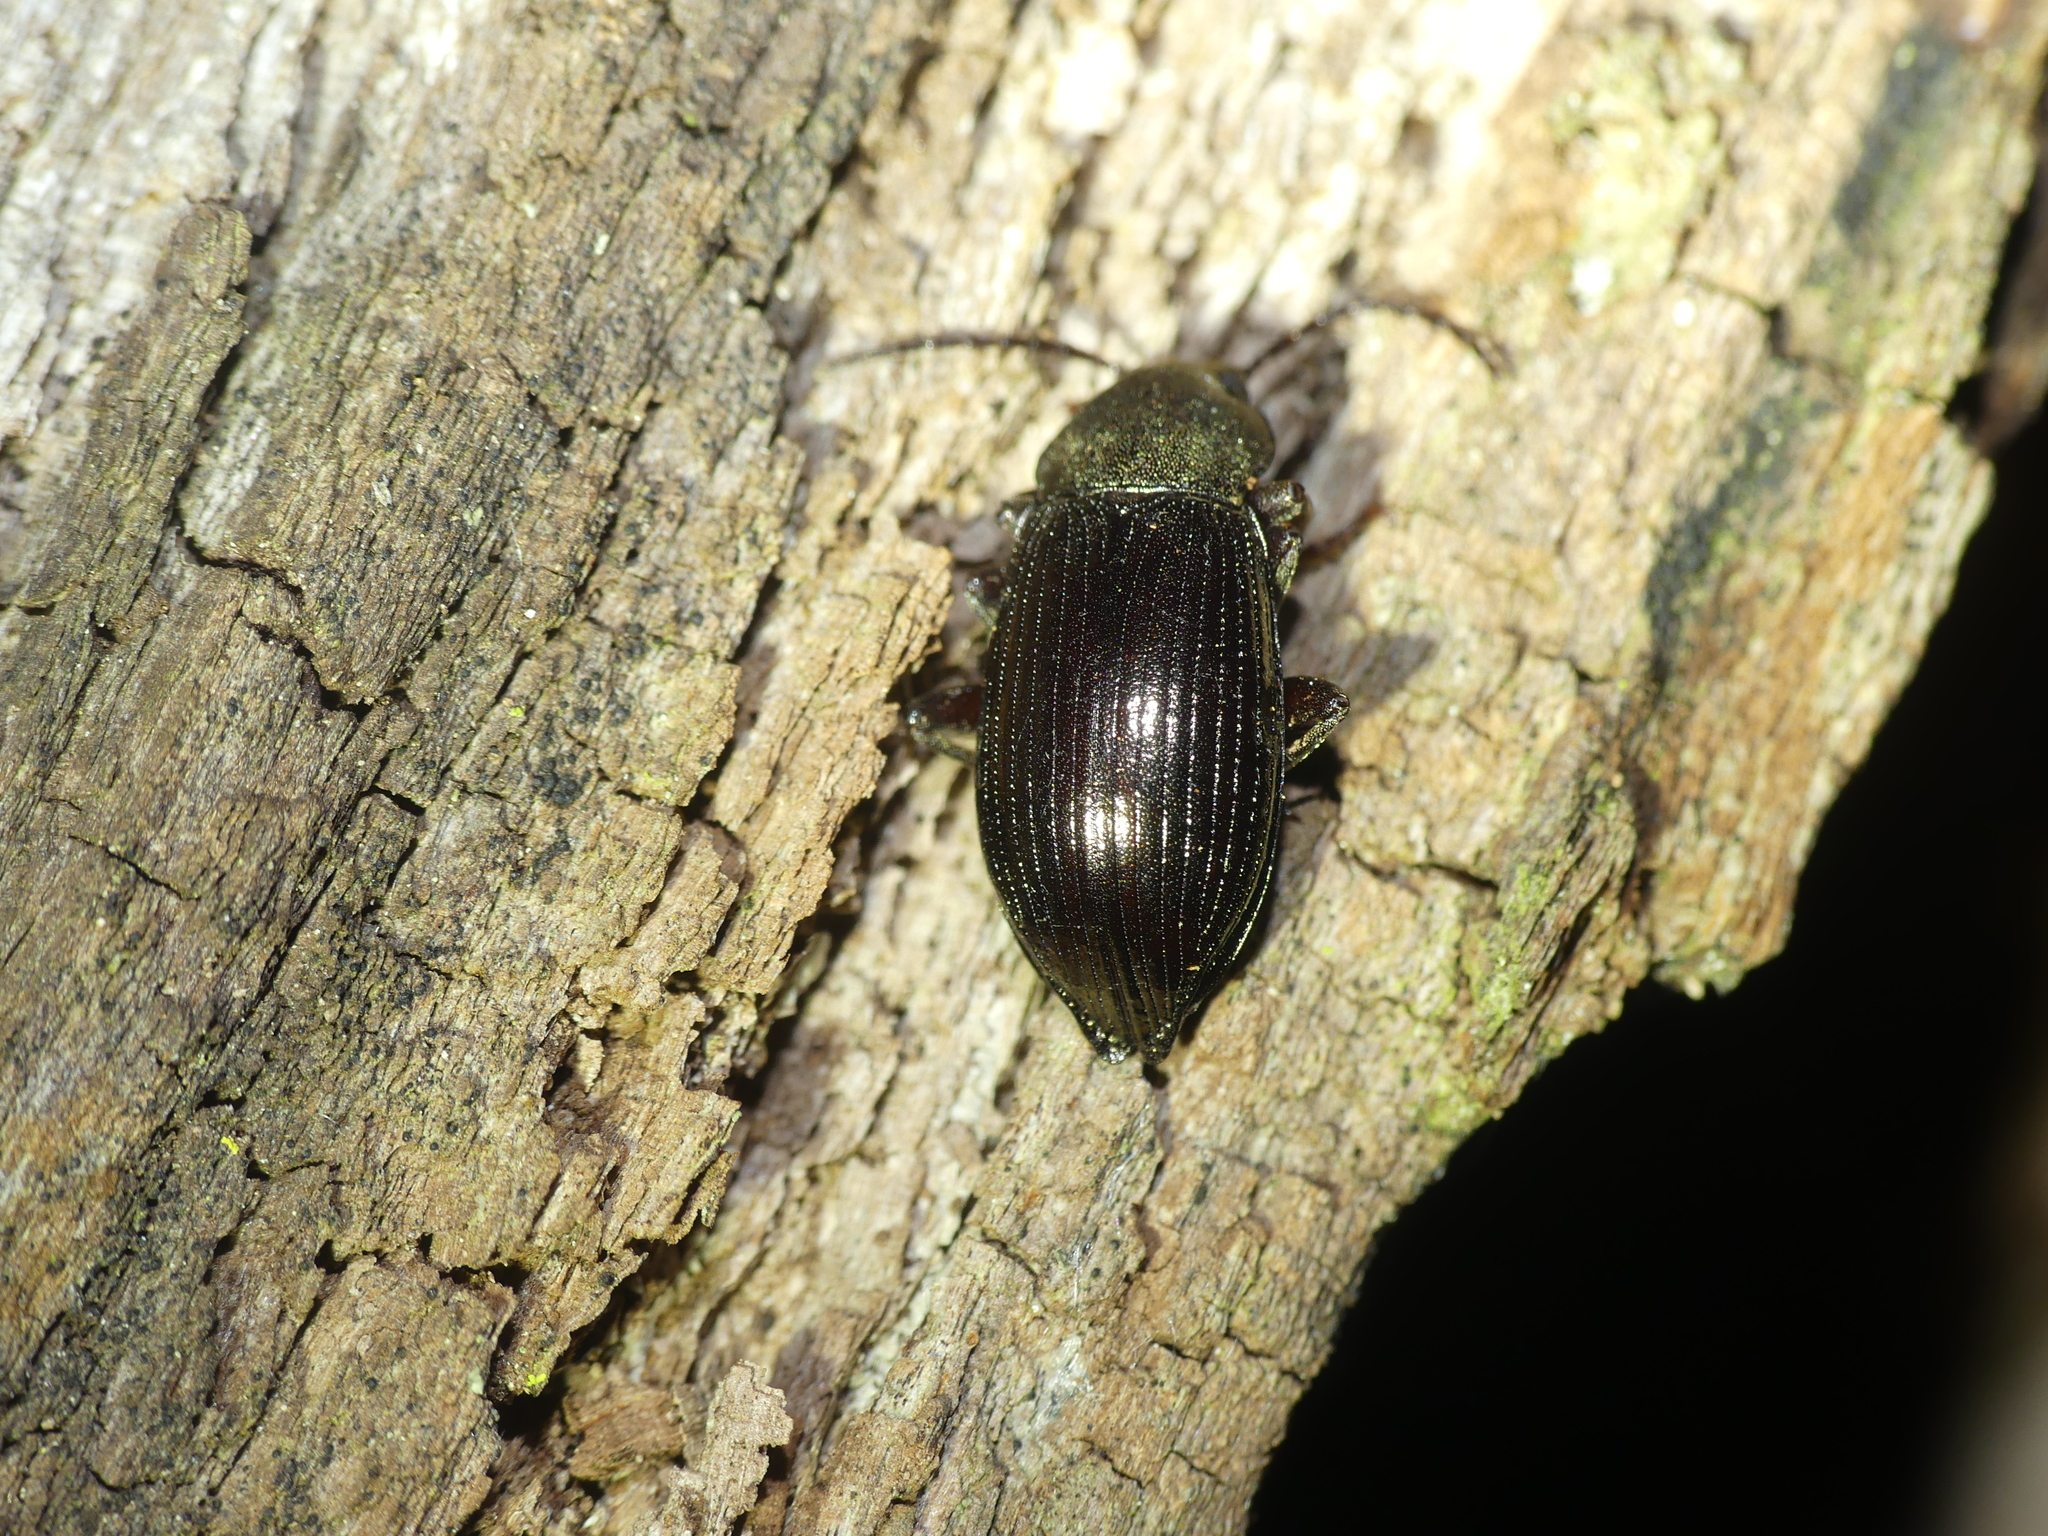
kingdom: Animalia
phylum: Arthropoda
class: Insecta
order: Coleoptera
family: Tenebrionidae
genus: Stenomax
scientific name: Stenomax aeneus
